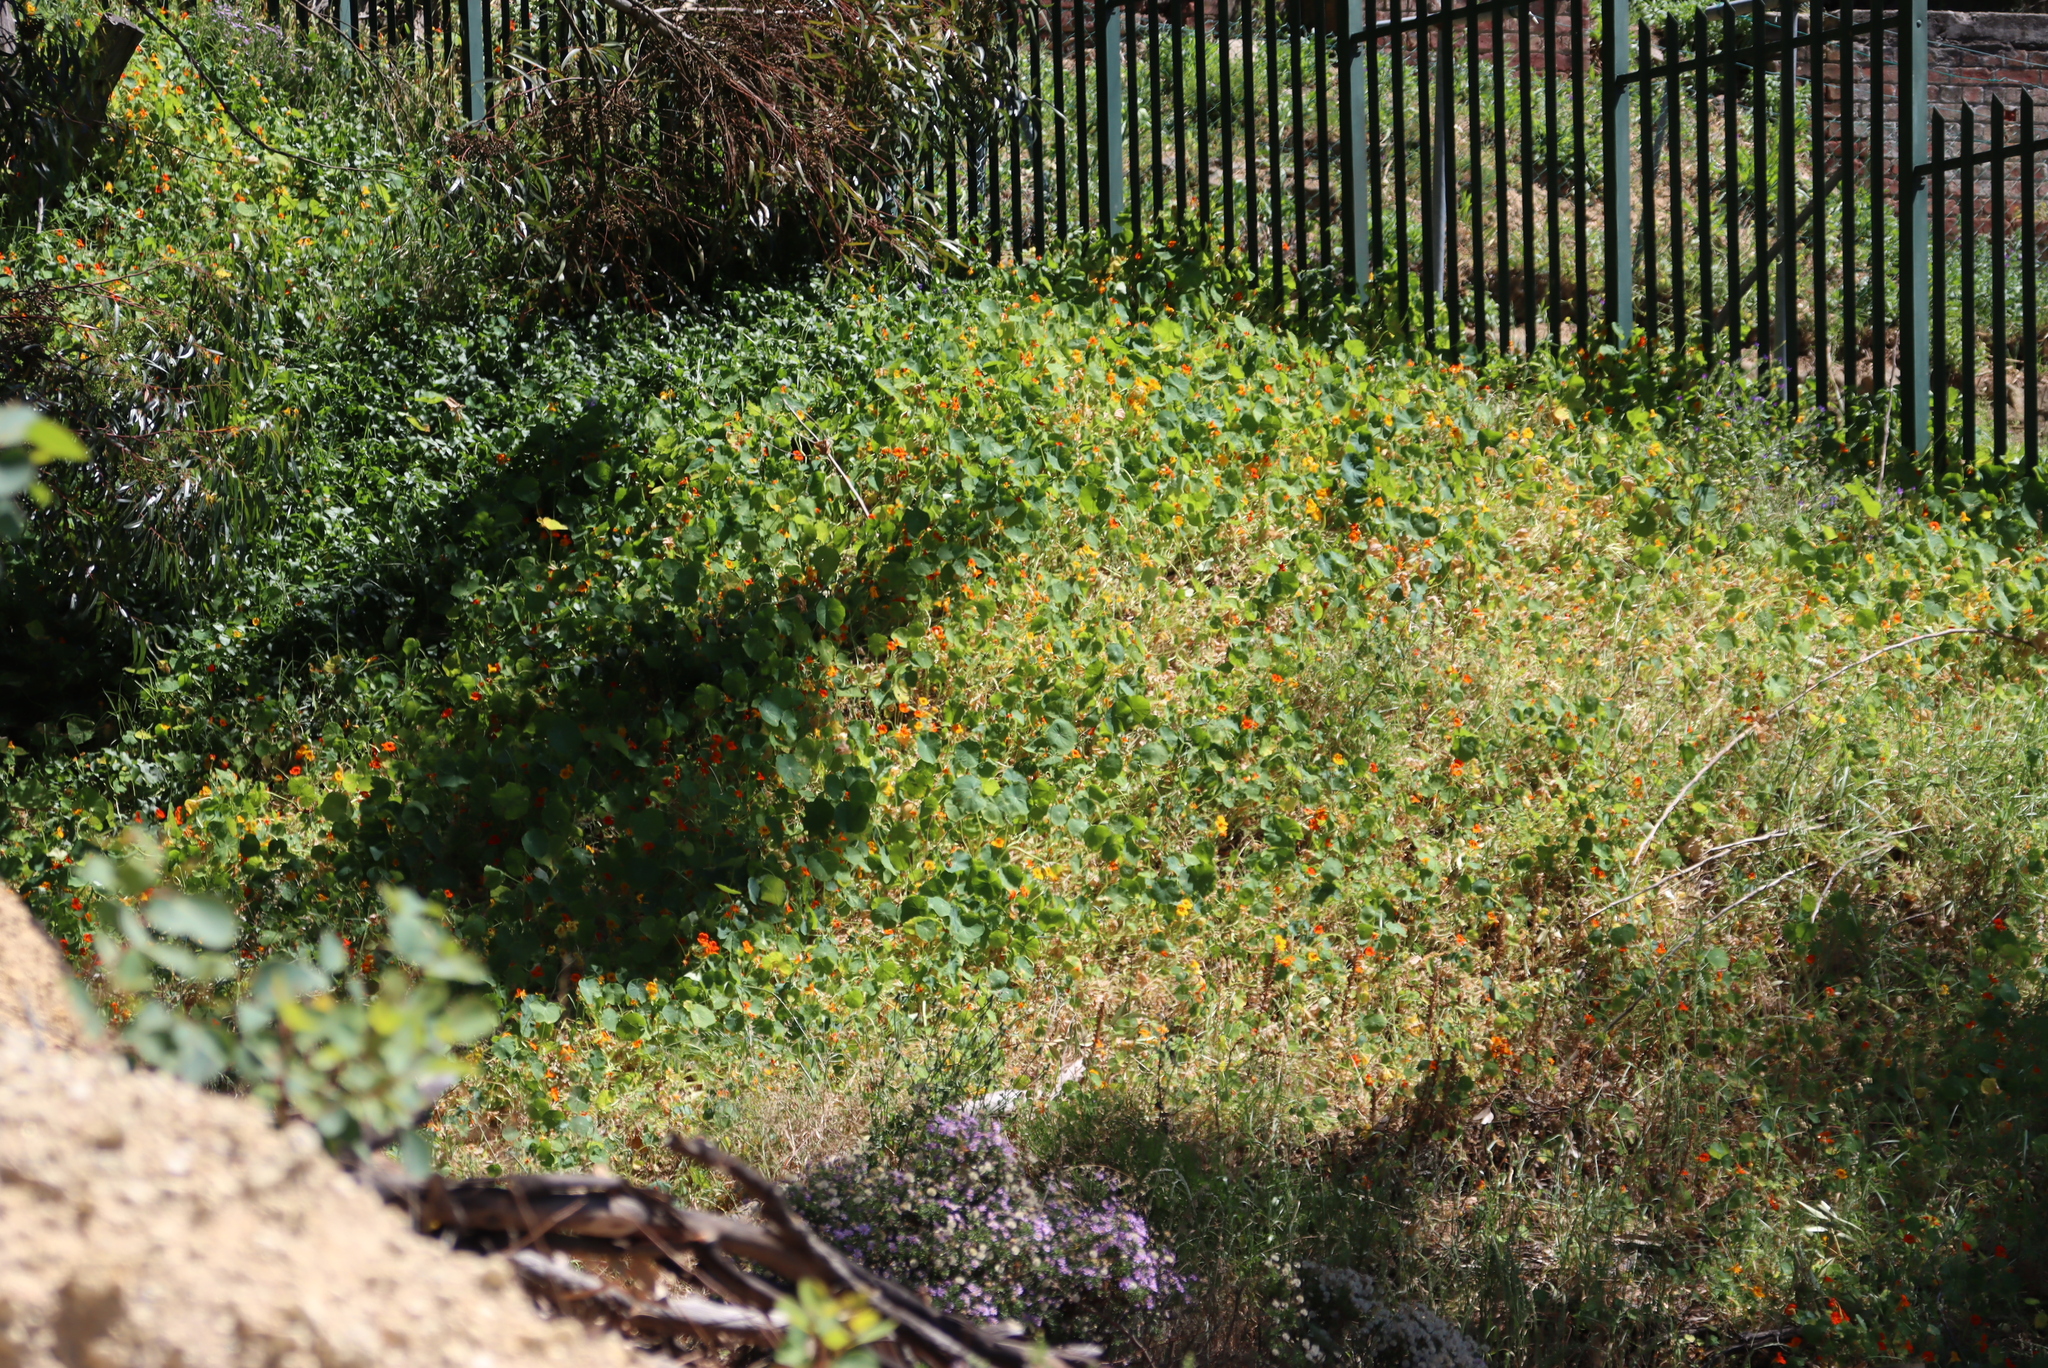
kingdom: Plantae
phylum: Tracheophyta
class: Magnoliopsida
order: Brassicales
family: Tropaeolaceae
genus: Tropaeolum
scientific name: Tropaeolum majus
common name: Nasturtium
